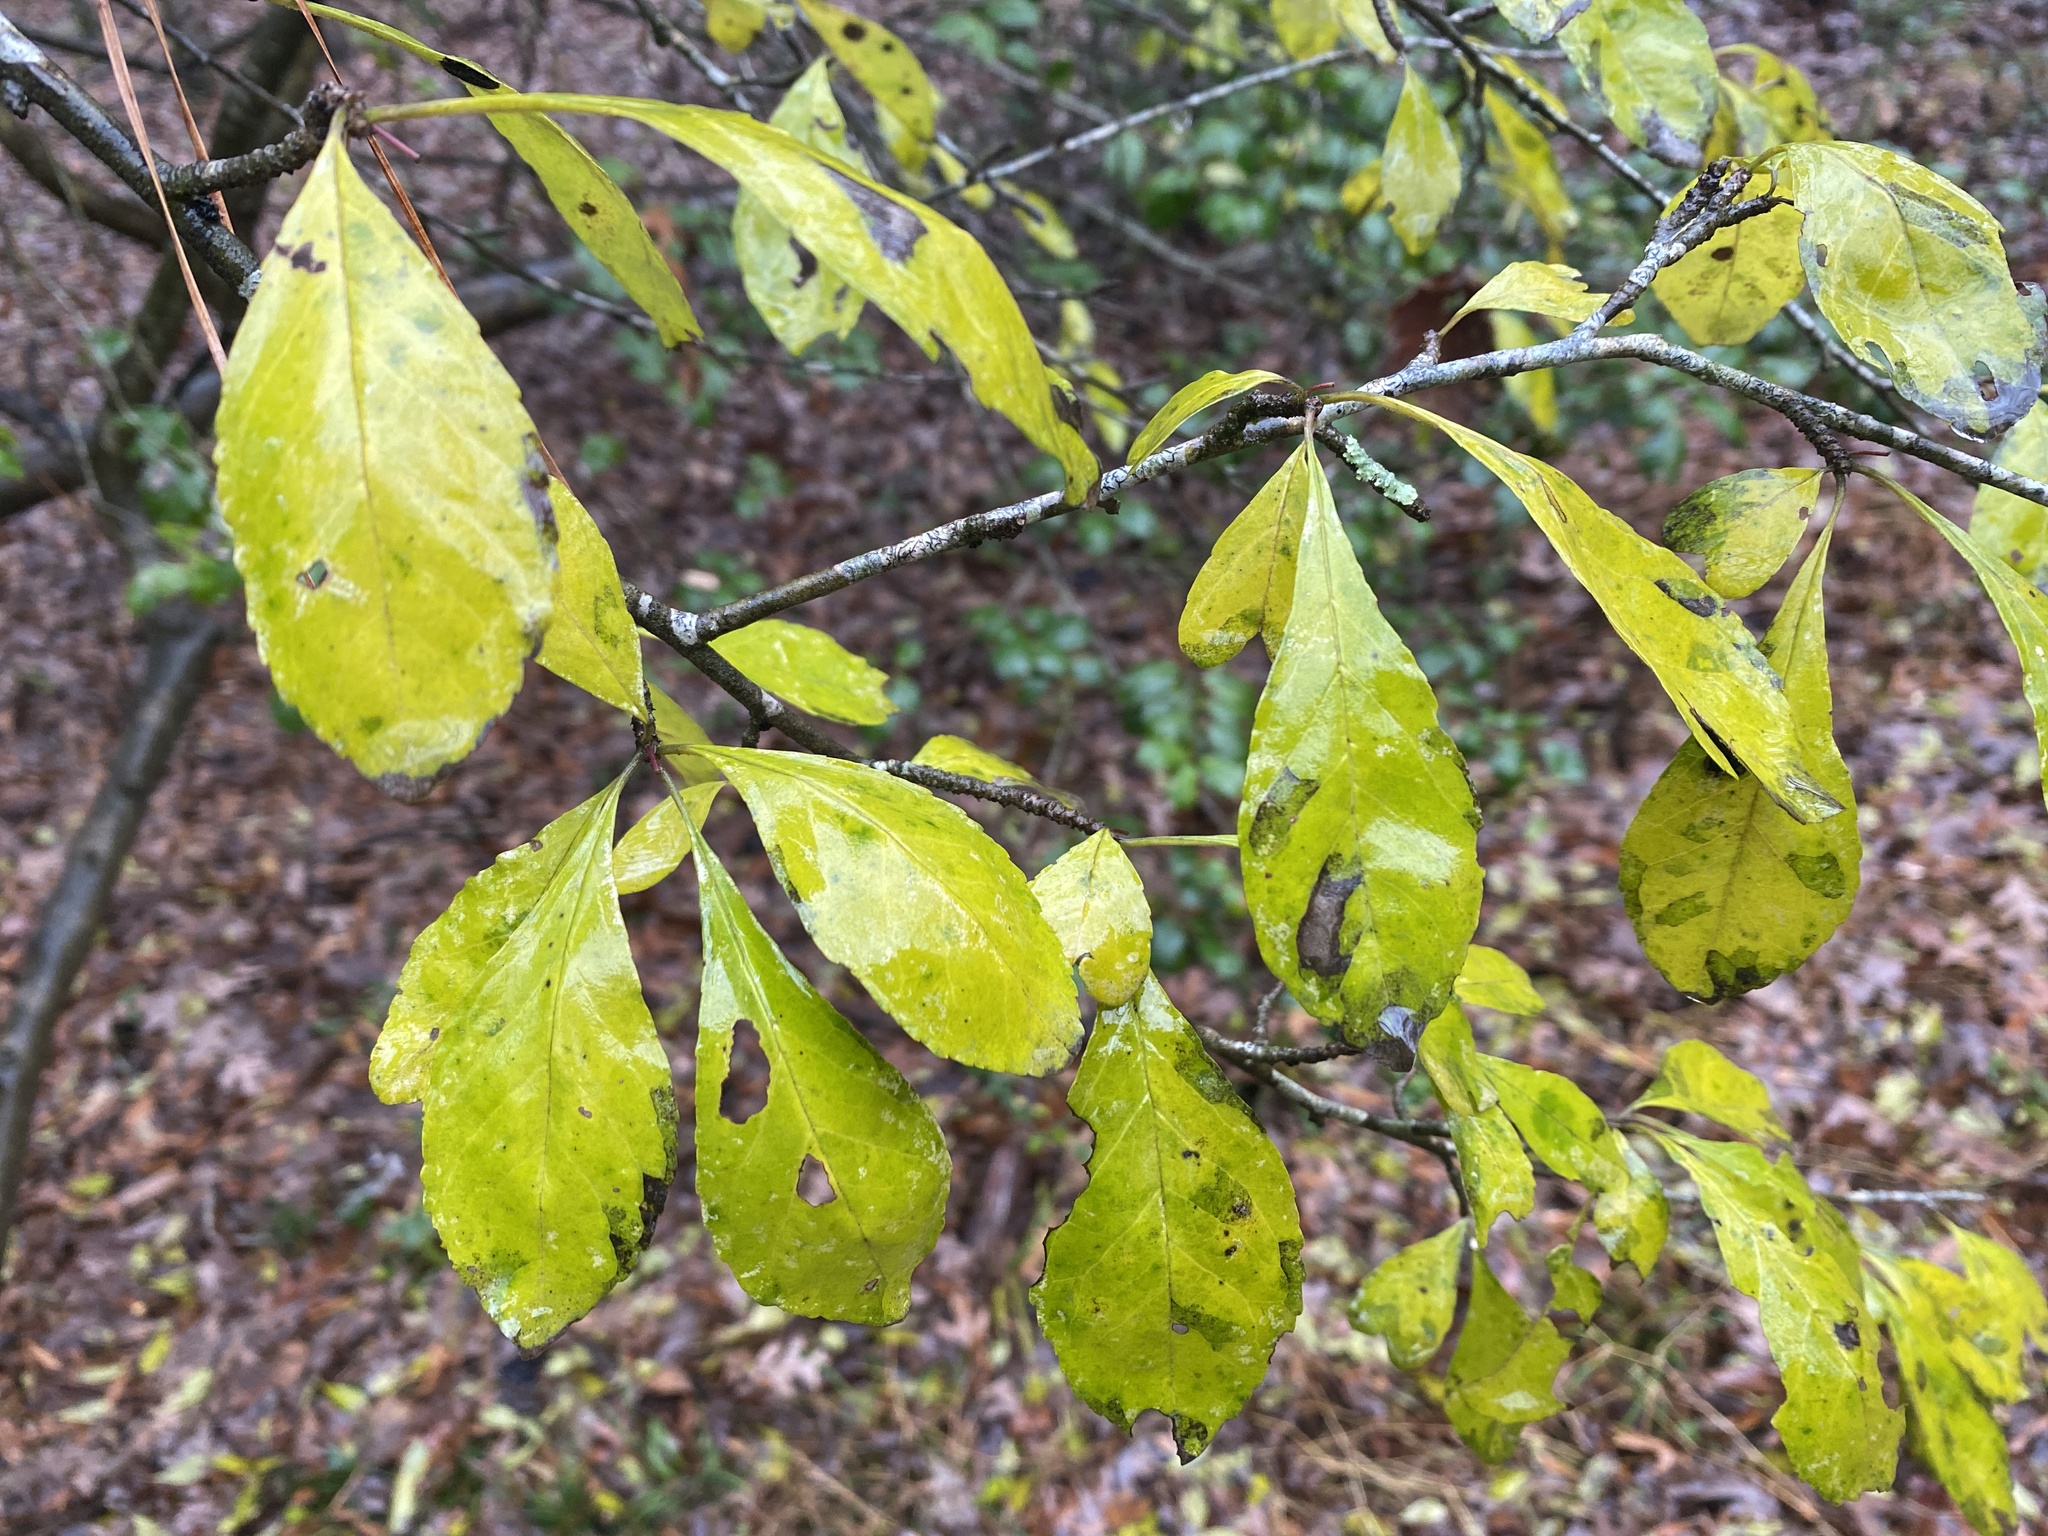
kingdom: Plantae
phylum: Tracheophyta
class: Magnoliopsida
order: Aquifoliales
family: Aquifoliaceae
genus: Ilex
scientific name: Ilex decidua
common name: Possum-haw
